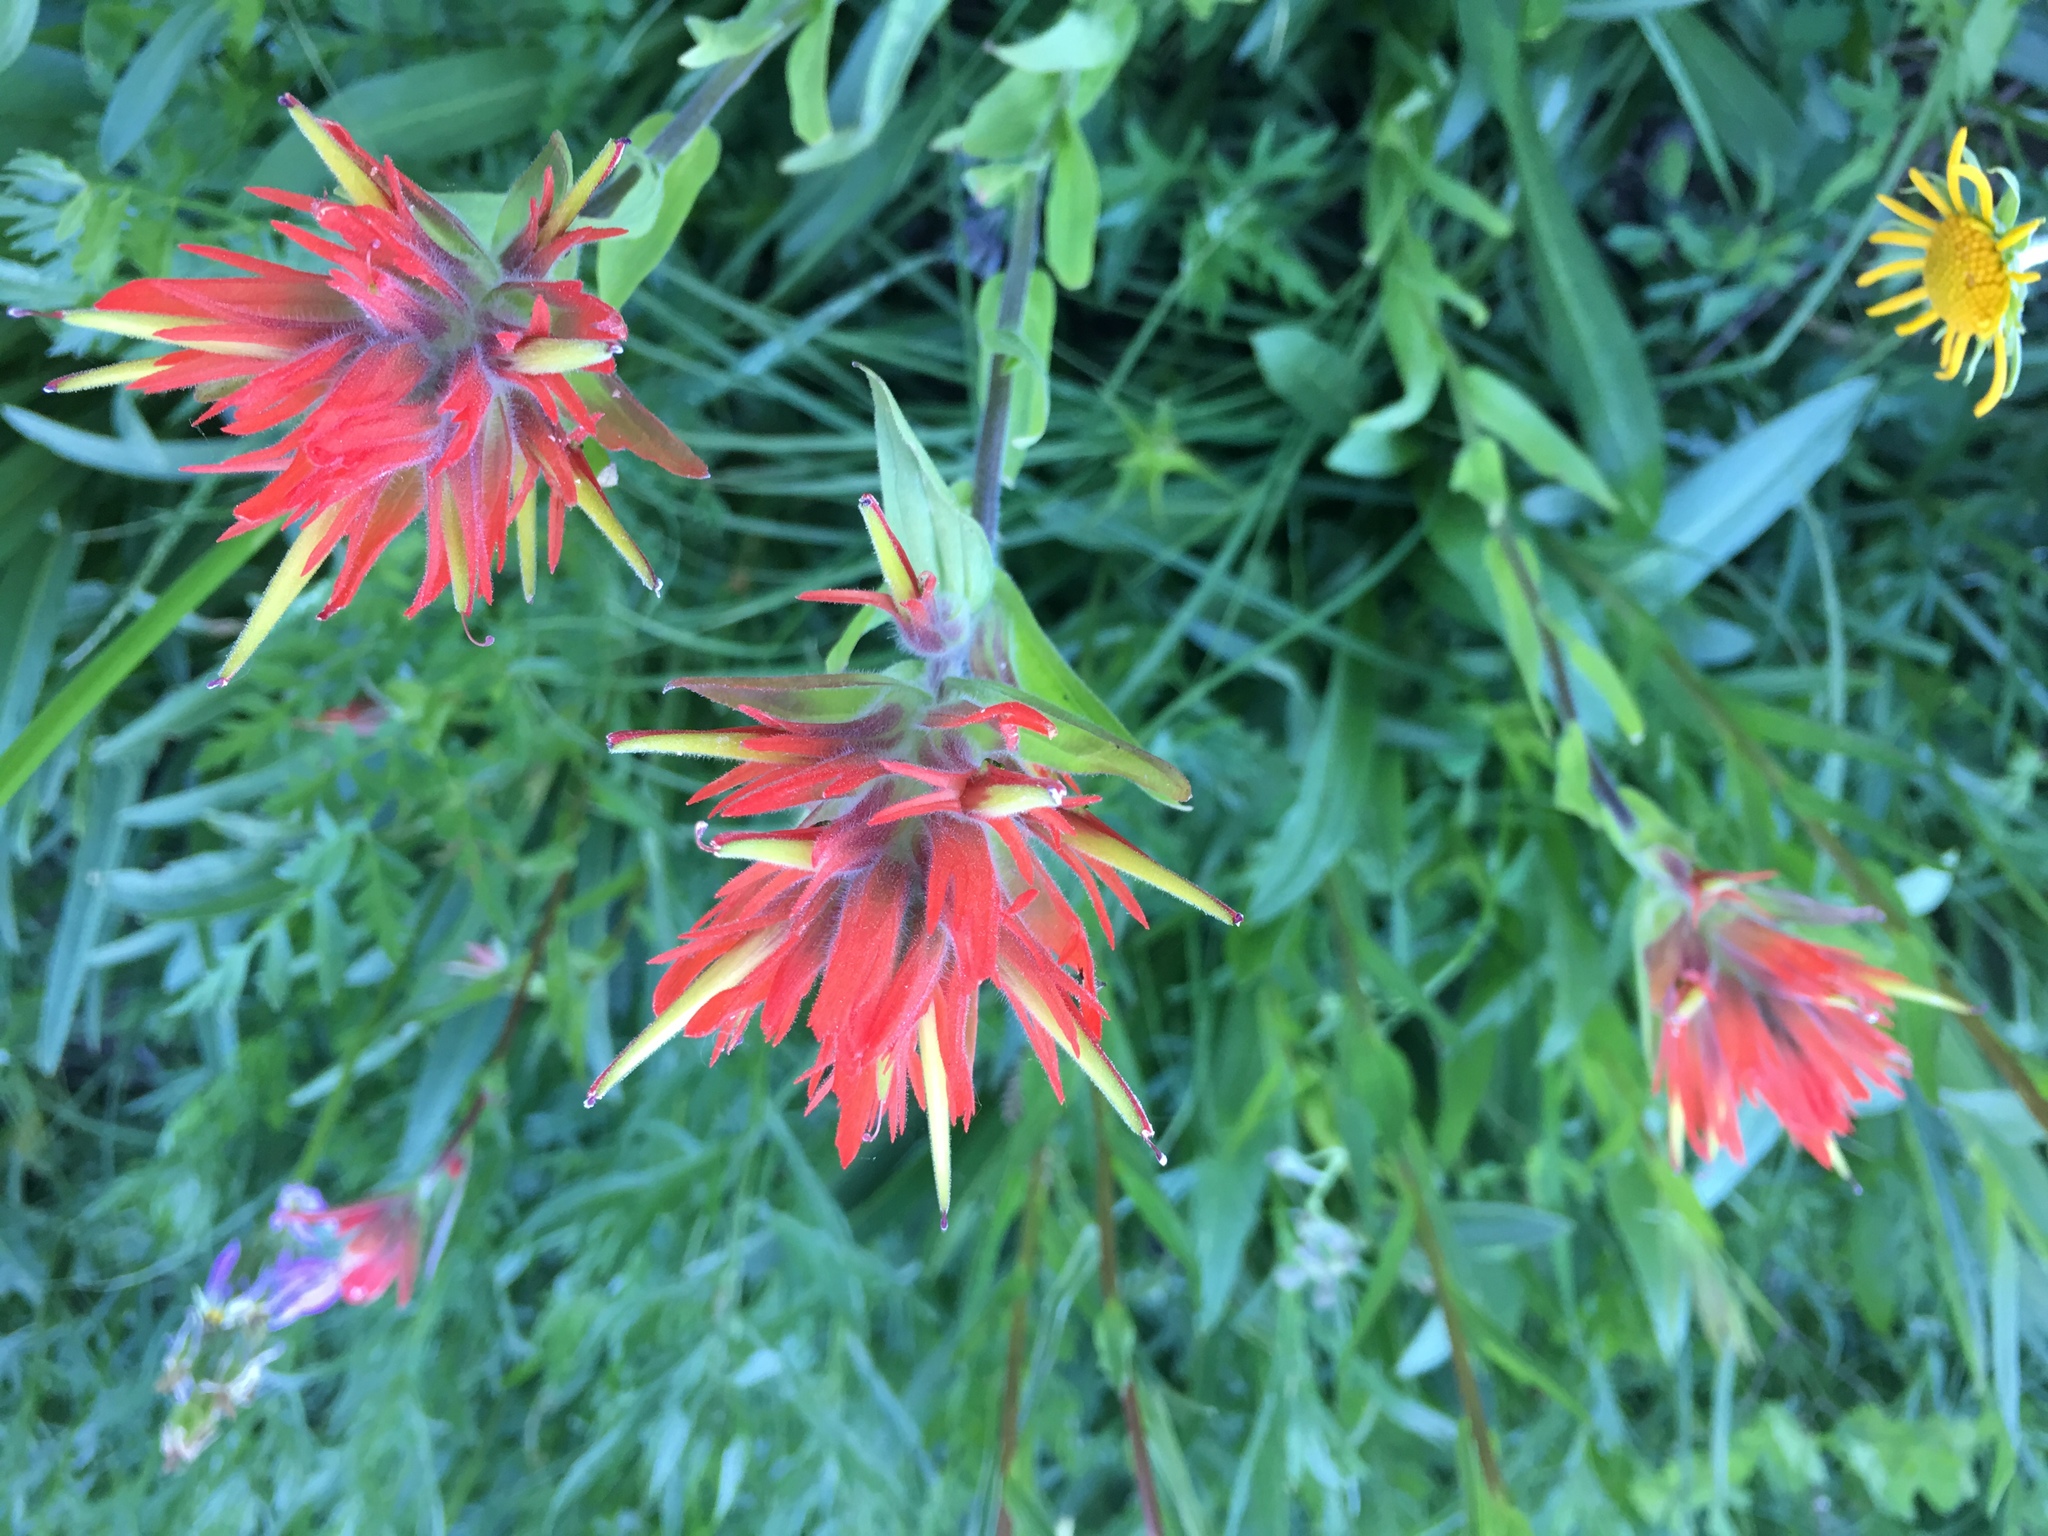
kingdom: Plantae
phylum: Tracheophyta
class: Magnoliopsida
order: Lamiales
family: Orobanchaceae
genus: Castilleja
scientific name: Castilleja miniata
